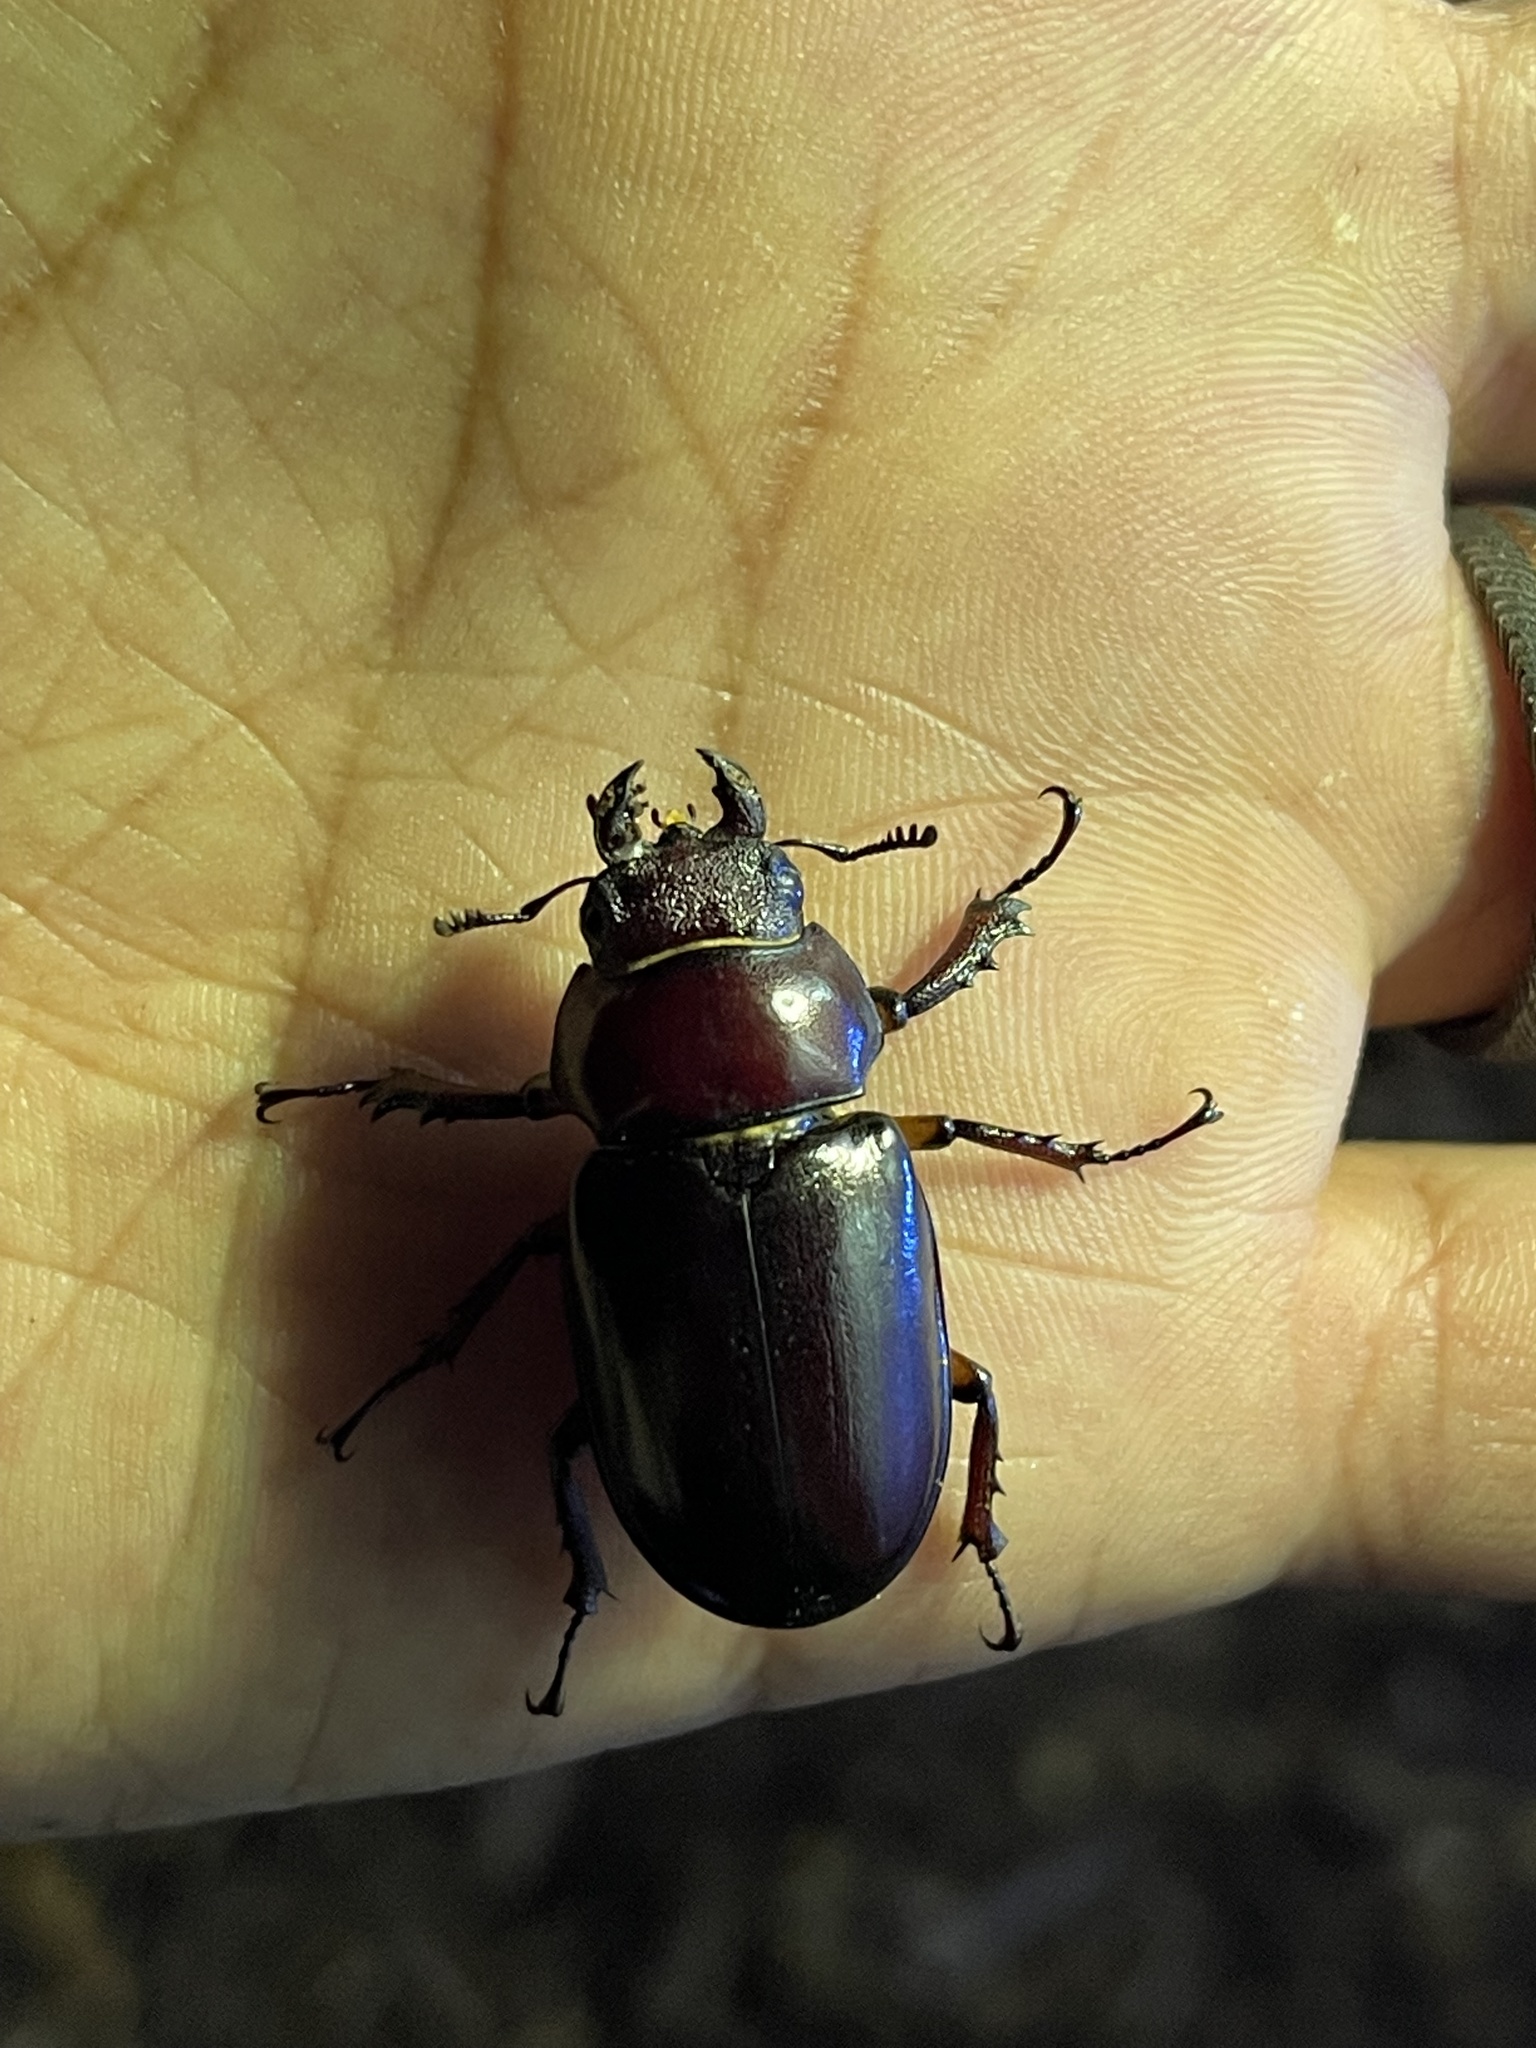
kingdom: Animalia
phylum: Arthropoda
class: Insecta
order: Coleoptera
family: Lucanidae
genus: Lucanus
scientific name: Lucanus capreolus
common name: Stag beetle
